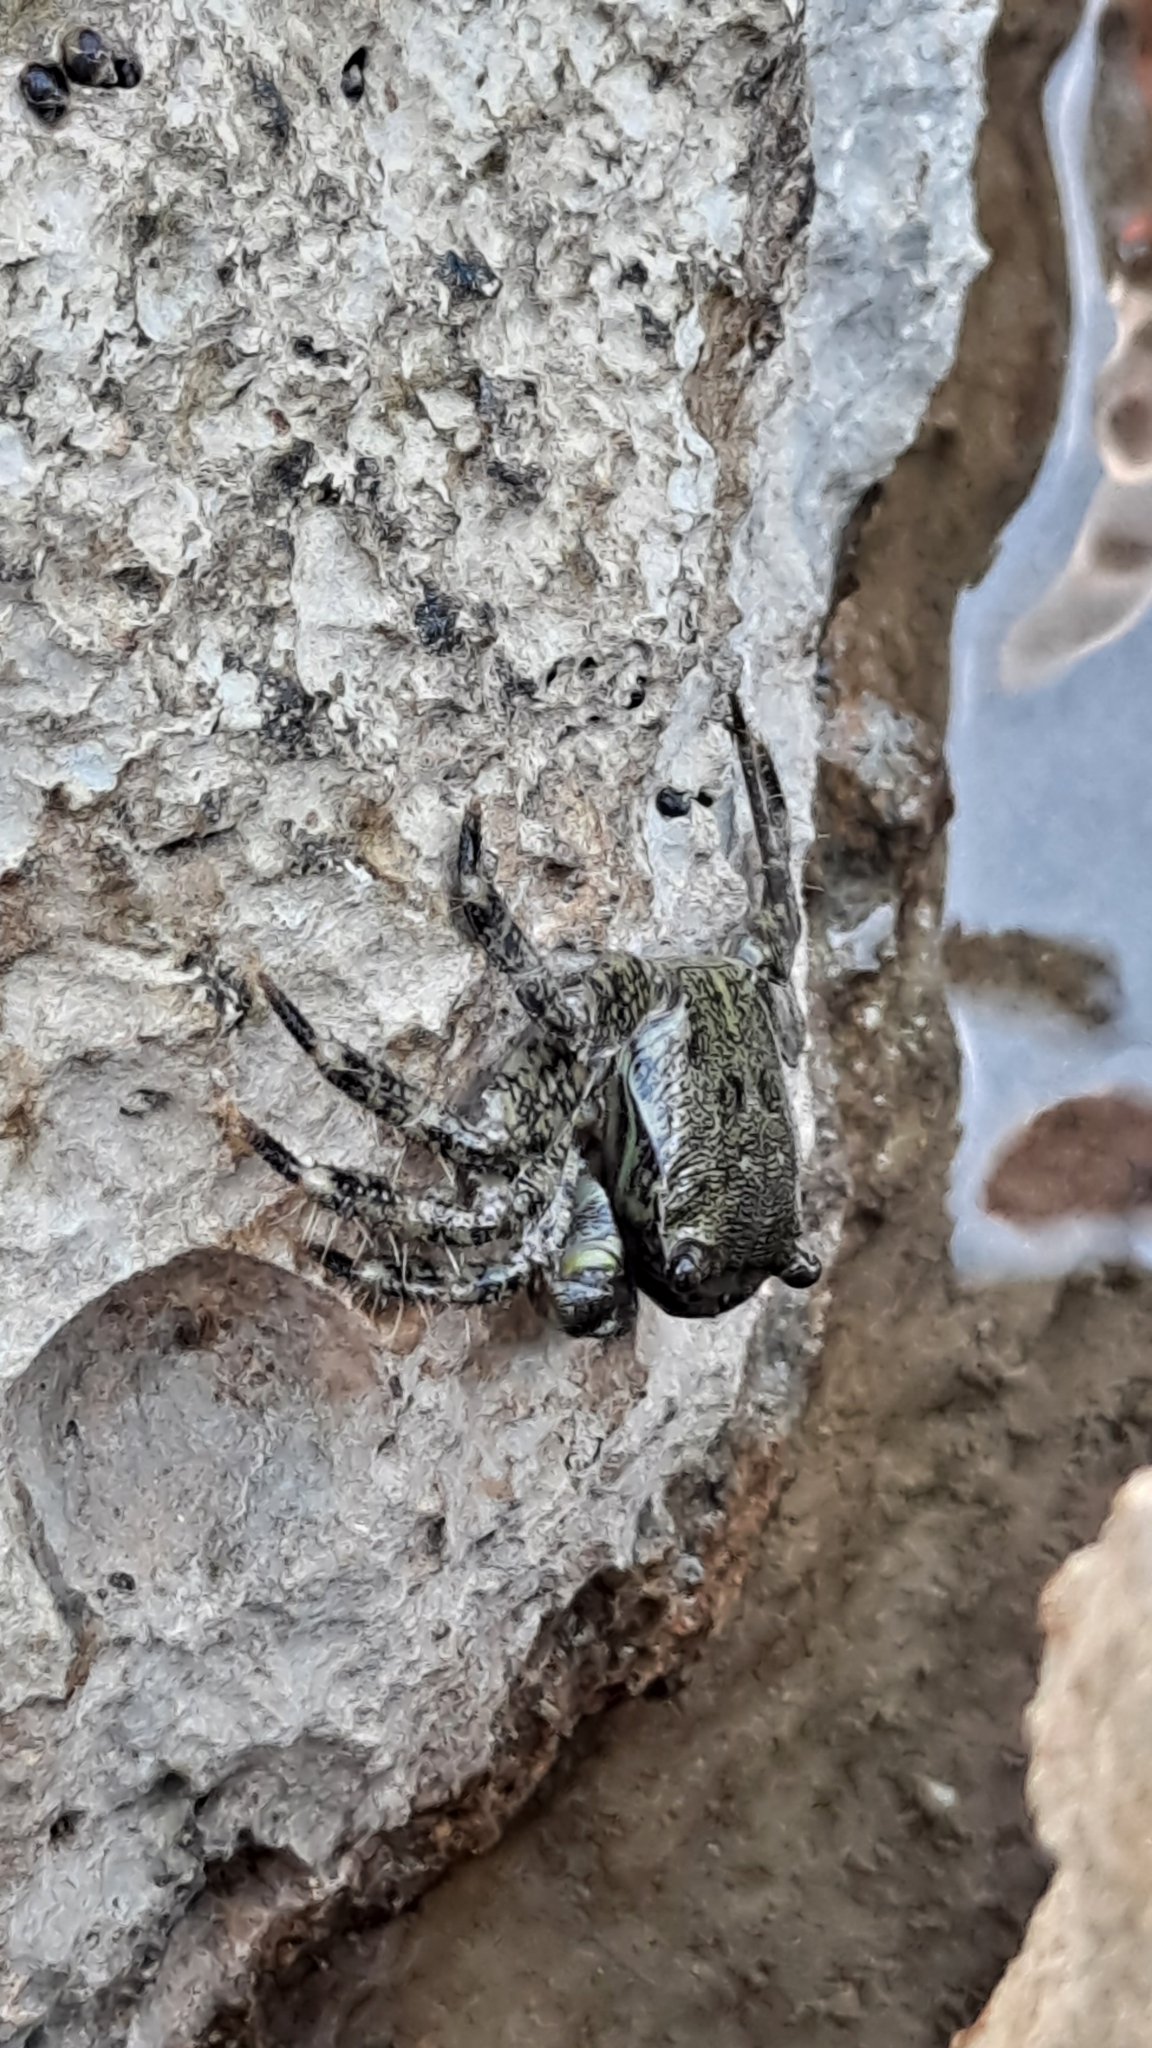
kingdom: Animalia
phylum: Arthropoda
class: Malacostraca
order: Decapoda
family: Grapsidae
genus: Pachygrapsus
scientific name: Pachygrapsus marmoratus
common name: Marbled rock crab
